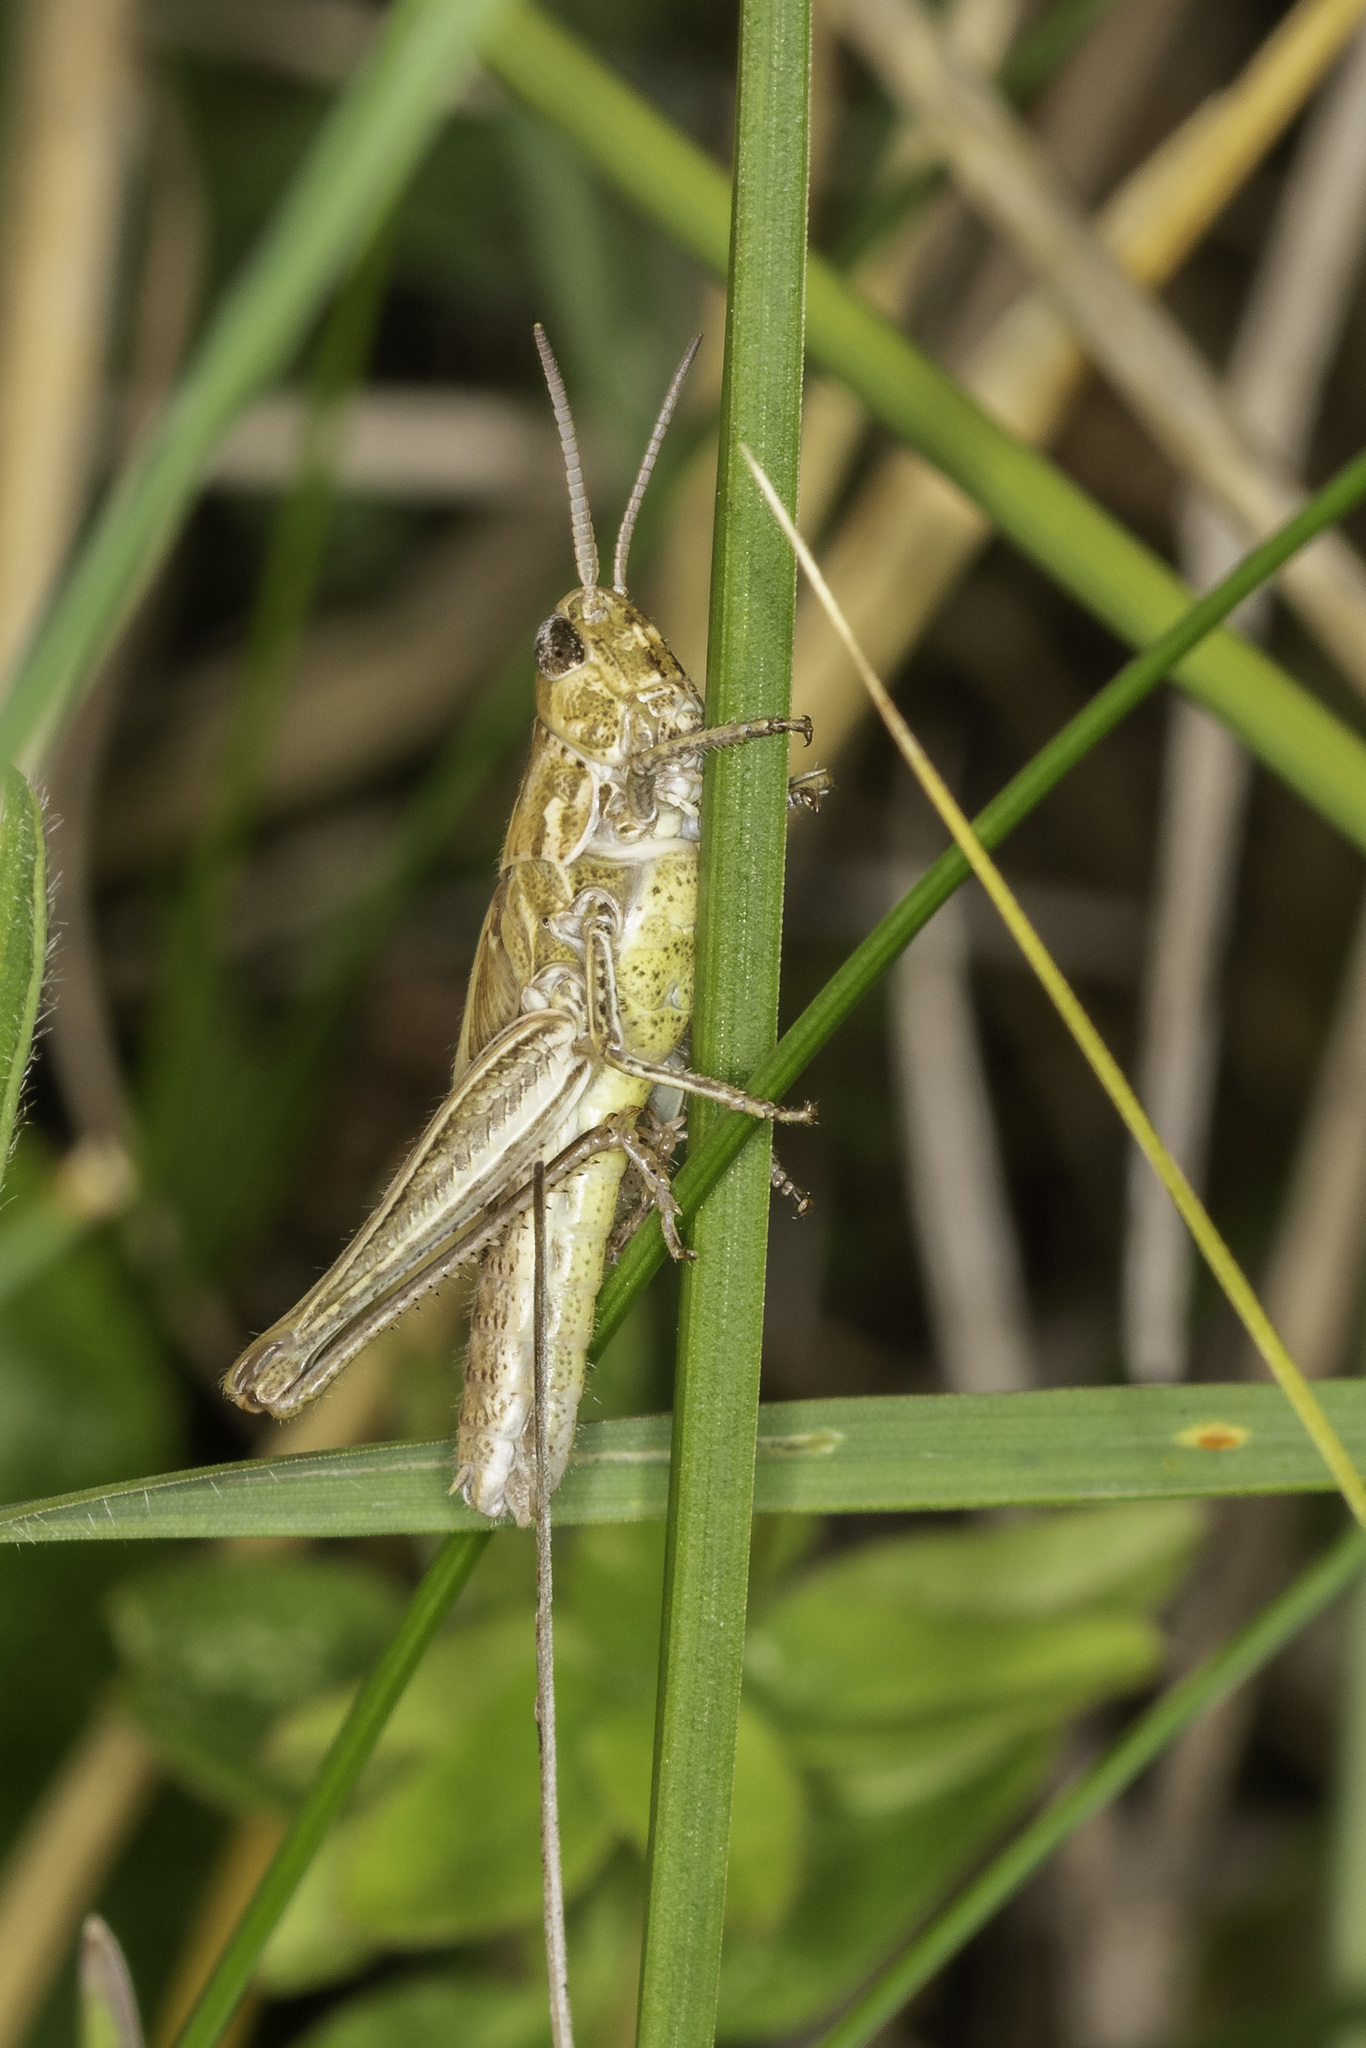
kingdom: Animalia
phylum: Arthropoda
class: Insecta
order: Orthoptera
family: Acrididae
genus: Chorthippus
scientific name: Chorthippus brunneus
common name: Field grasshopper
